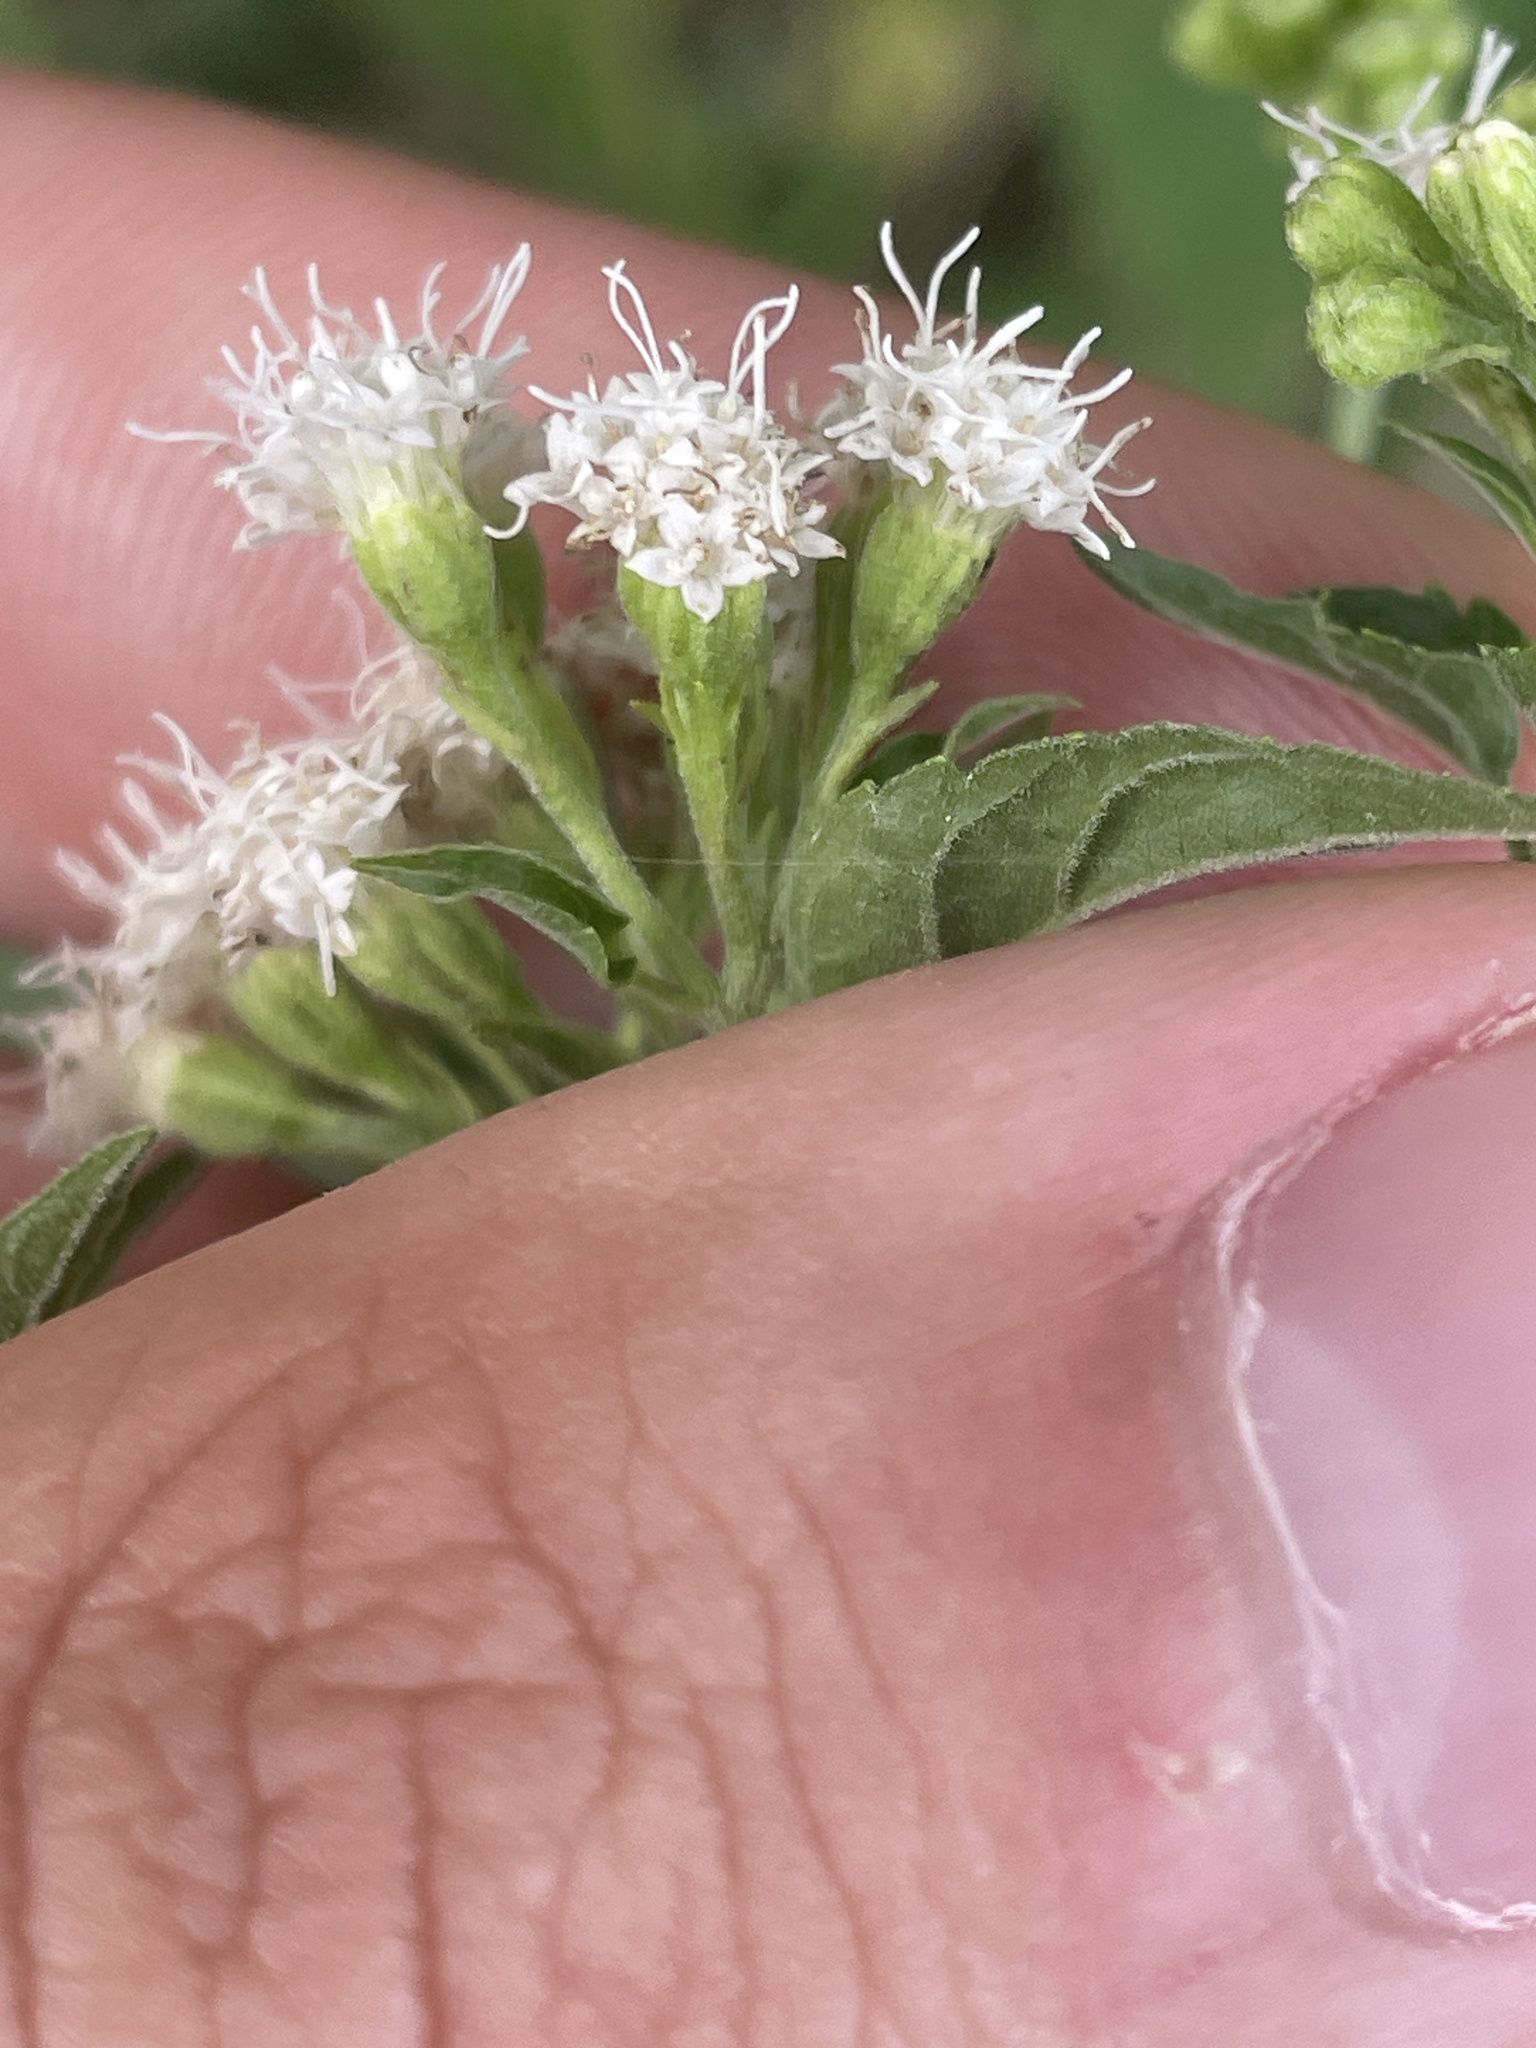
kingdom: Plantae
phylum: Tracheophyta
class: Magnoliopsida
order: Asterales
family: Asteraceae
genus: Ageratina
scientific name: Ageratina altissima
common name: White snakeroot
